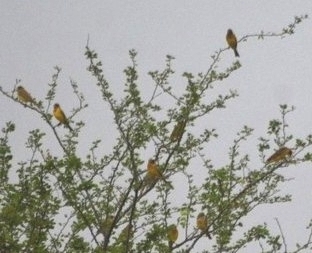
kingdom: Animalia
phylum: Chordata
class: Aves
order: Passeriformes
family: Ploceidae
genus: Ploceus
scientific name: Ploceus philippinus
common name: Baya weaver
